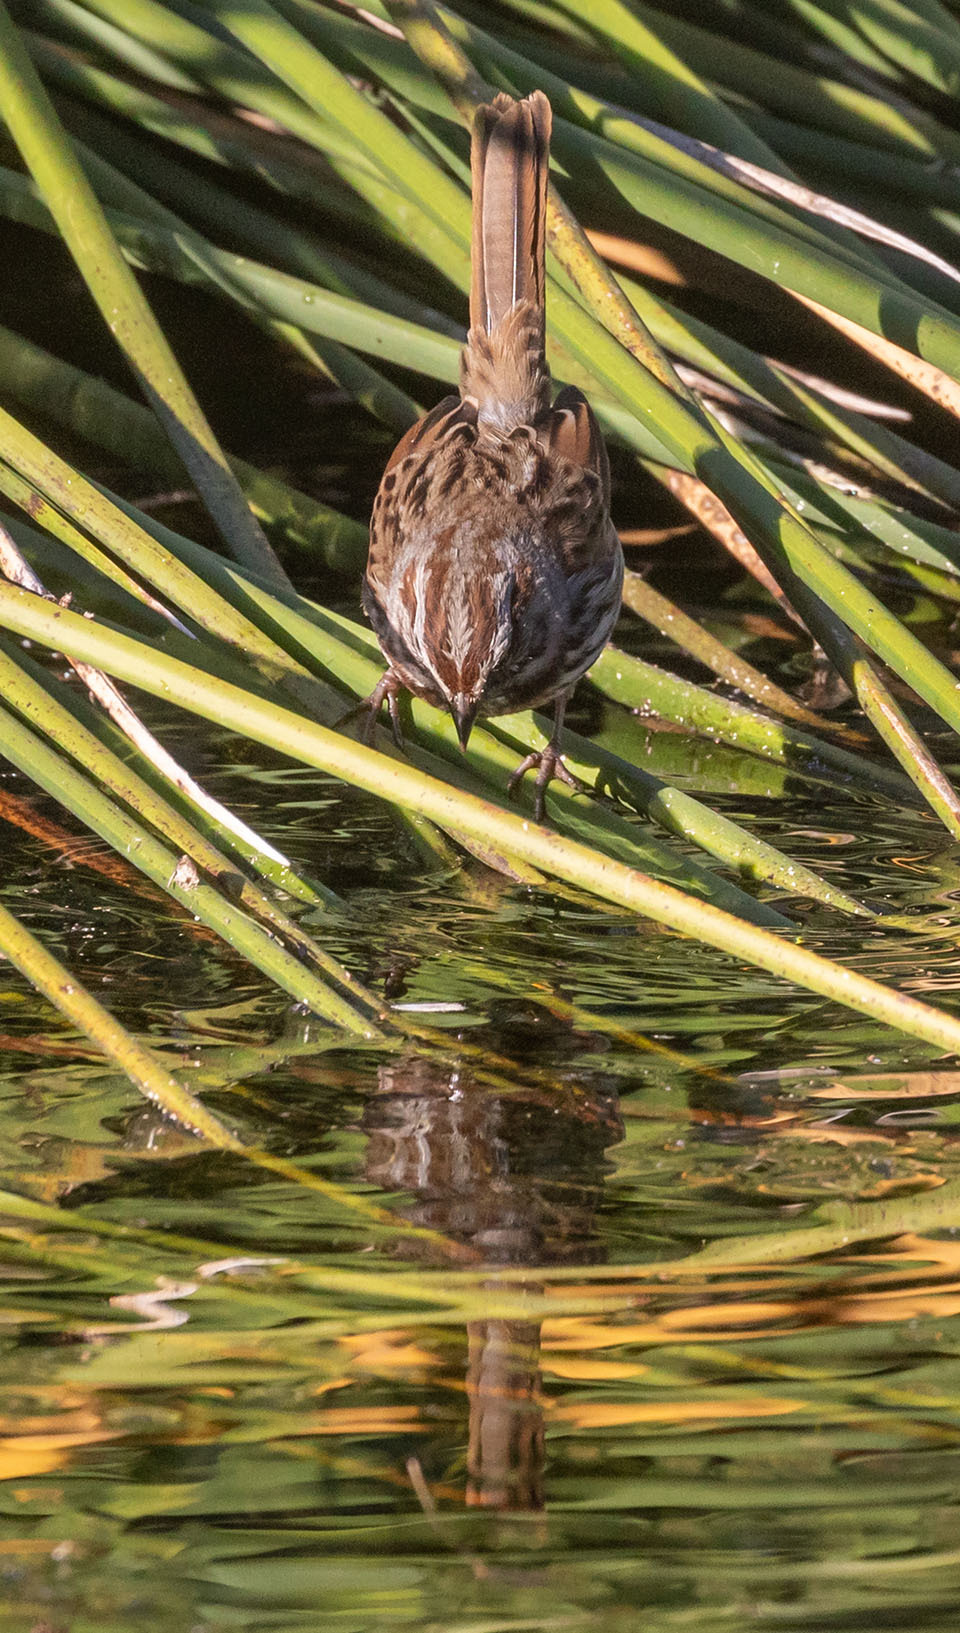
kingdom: Animalia
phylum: Chordata
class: Aves
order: Passeriformes
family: Passerellidae
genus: Melospiza
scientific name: Melospiza melodia
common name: Song sparrow
